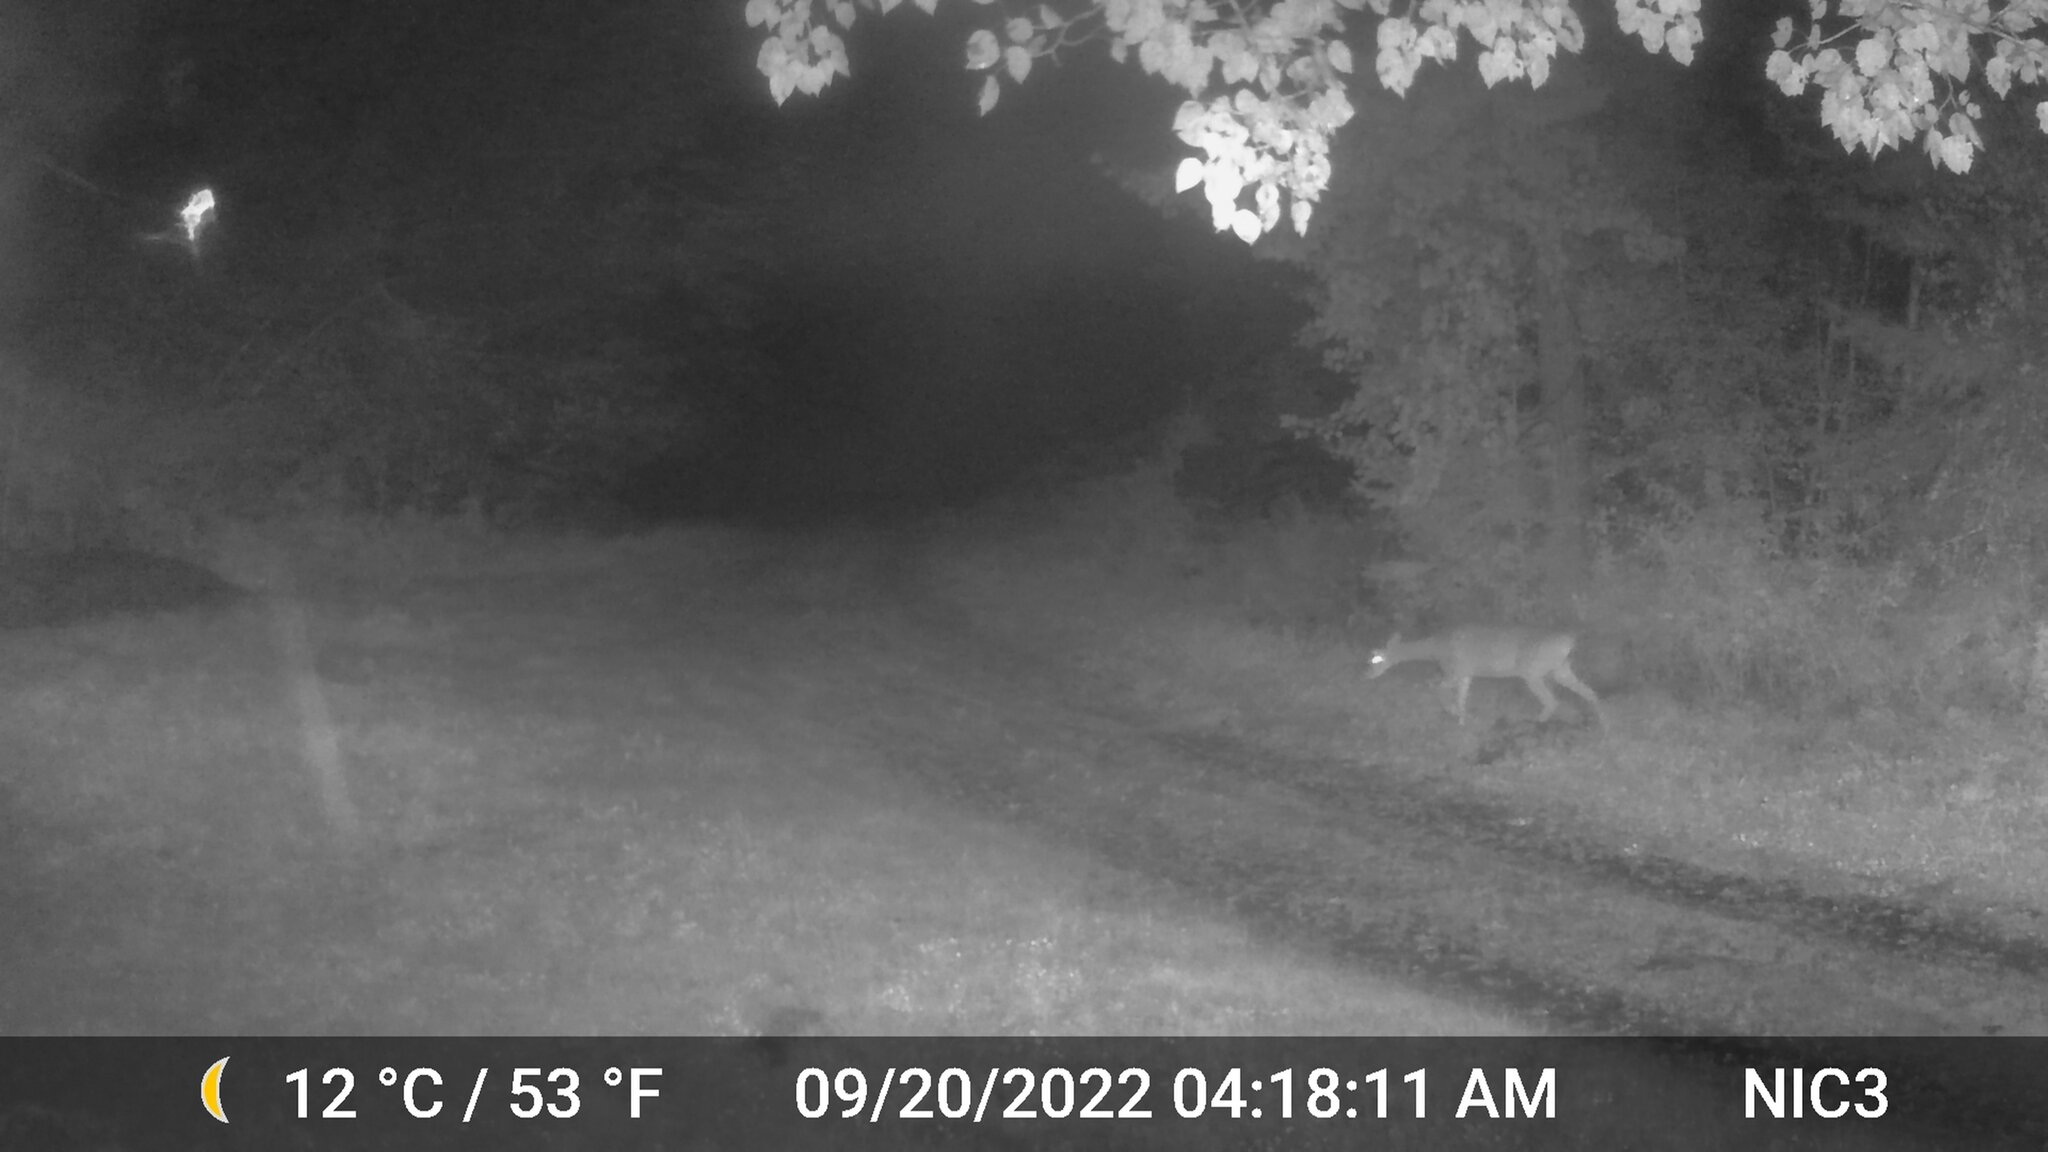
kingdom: Animalia
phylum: Chordata
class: Mammalia
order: Artiodactyla
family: Cervidae
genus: Odocoileus
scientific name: Odocoileus virginianus
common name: White-tailed deer
